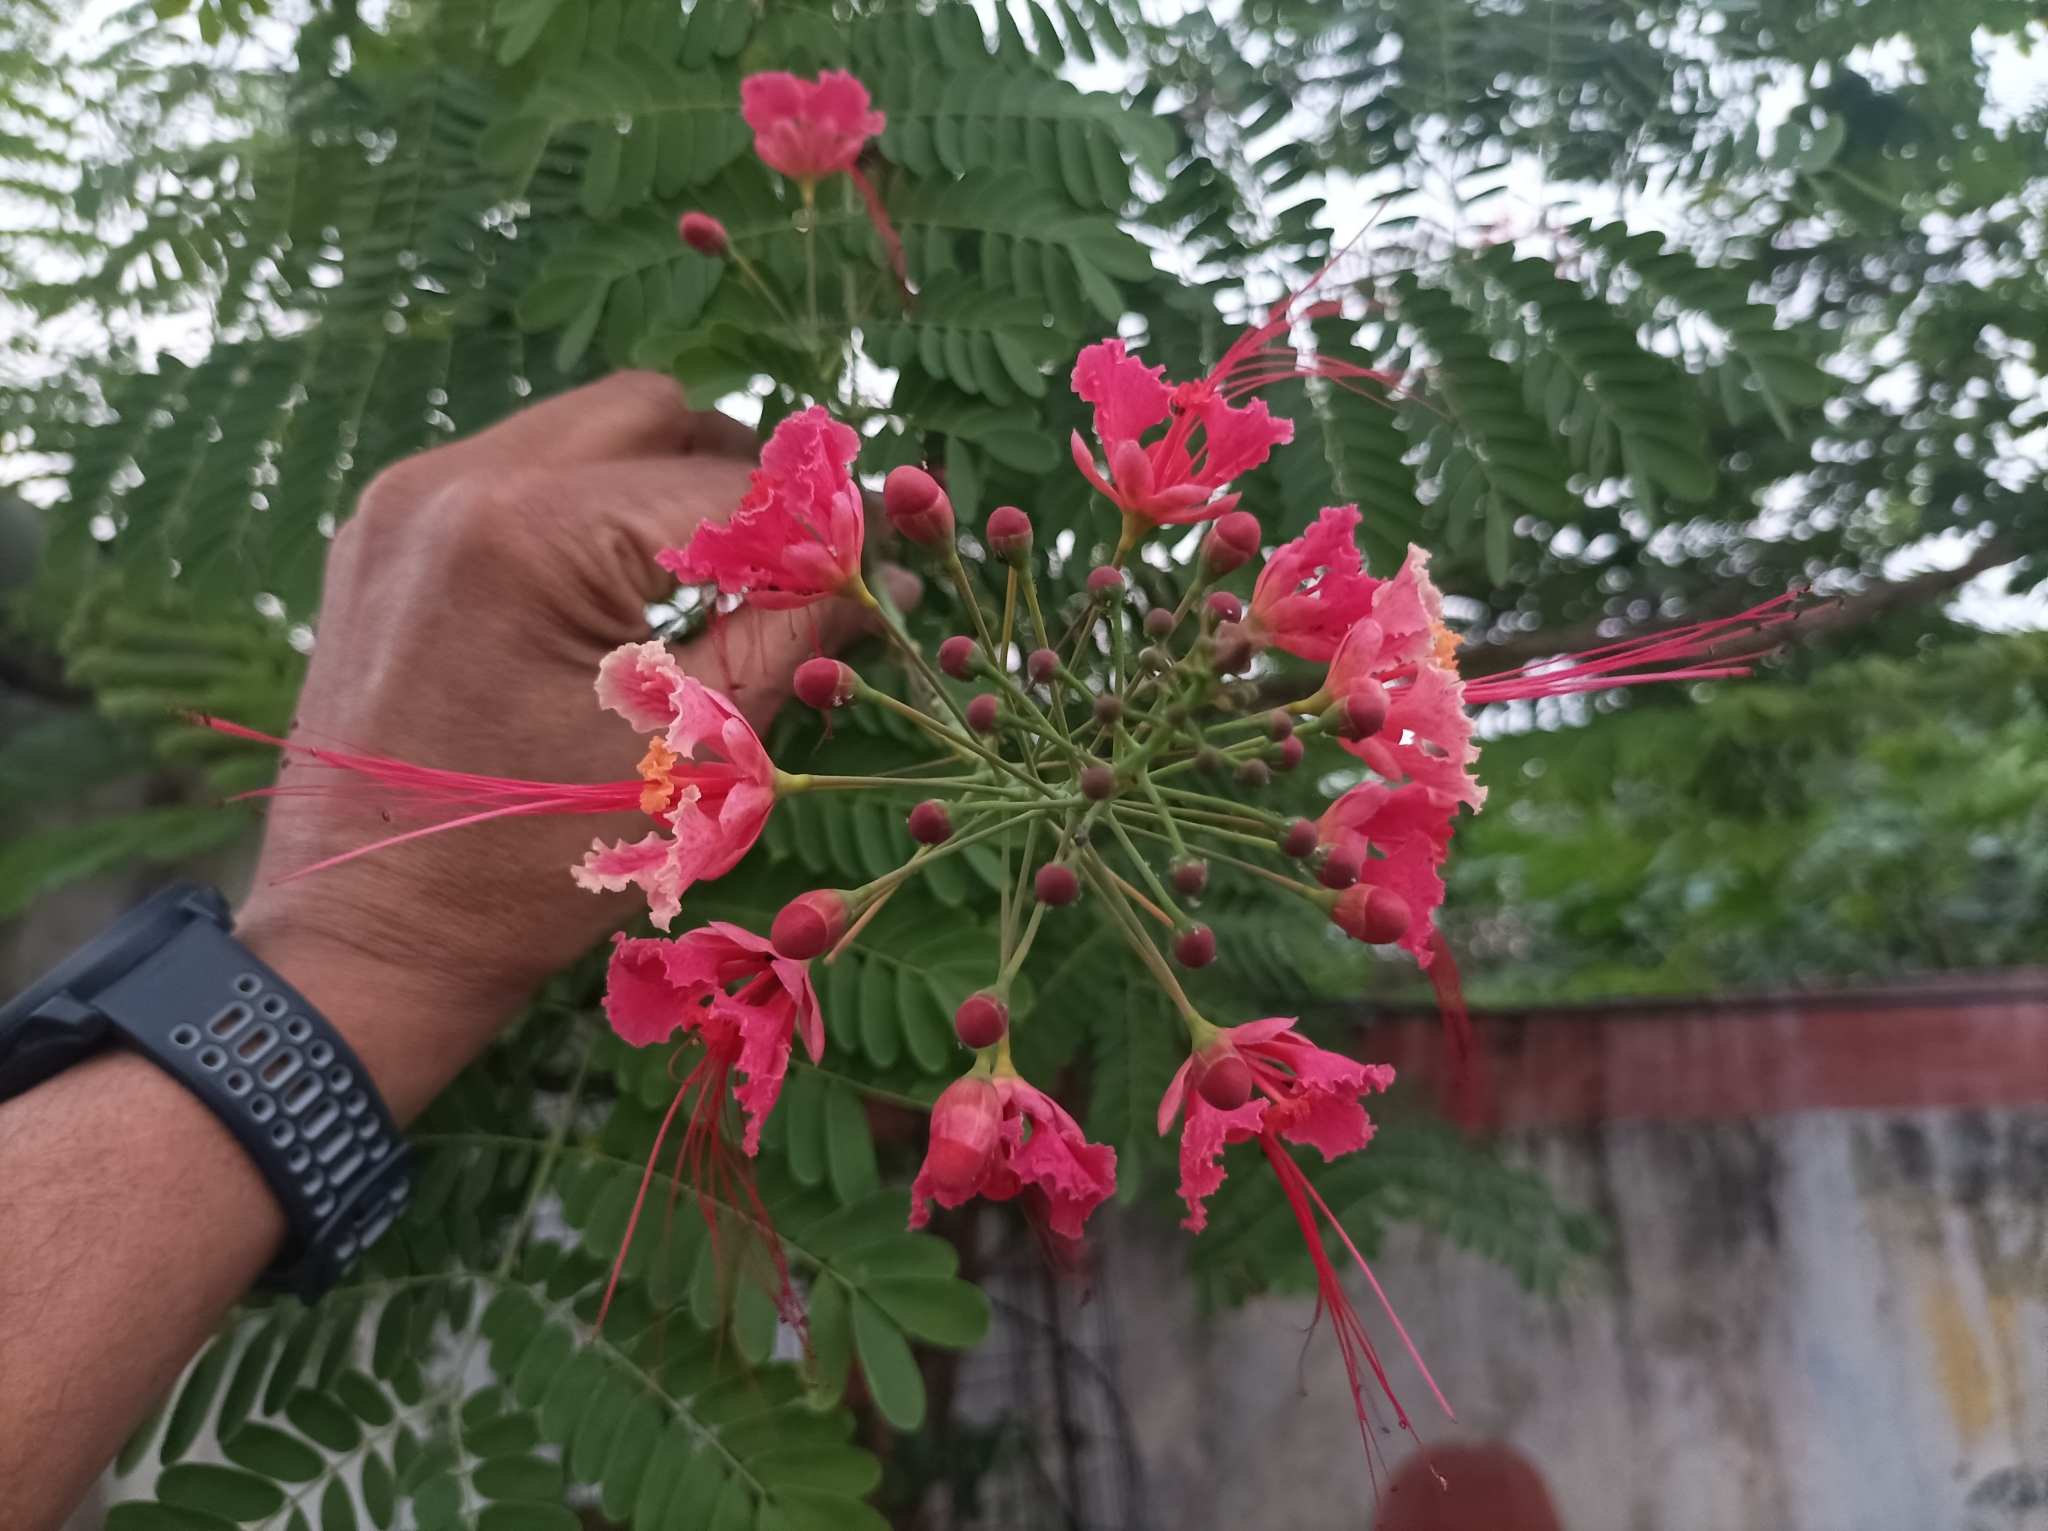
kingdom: Plantae
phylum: Tracheophyta
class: Magnoliopsida
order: Fabales
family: Fabaceae
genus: Caesalpinia
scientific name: Caesalpinia pulcherrima
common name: Pride-of-barbados
